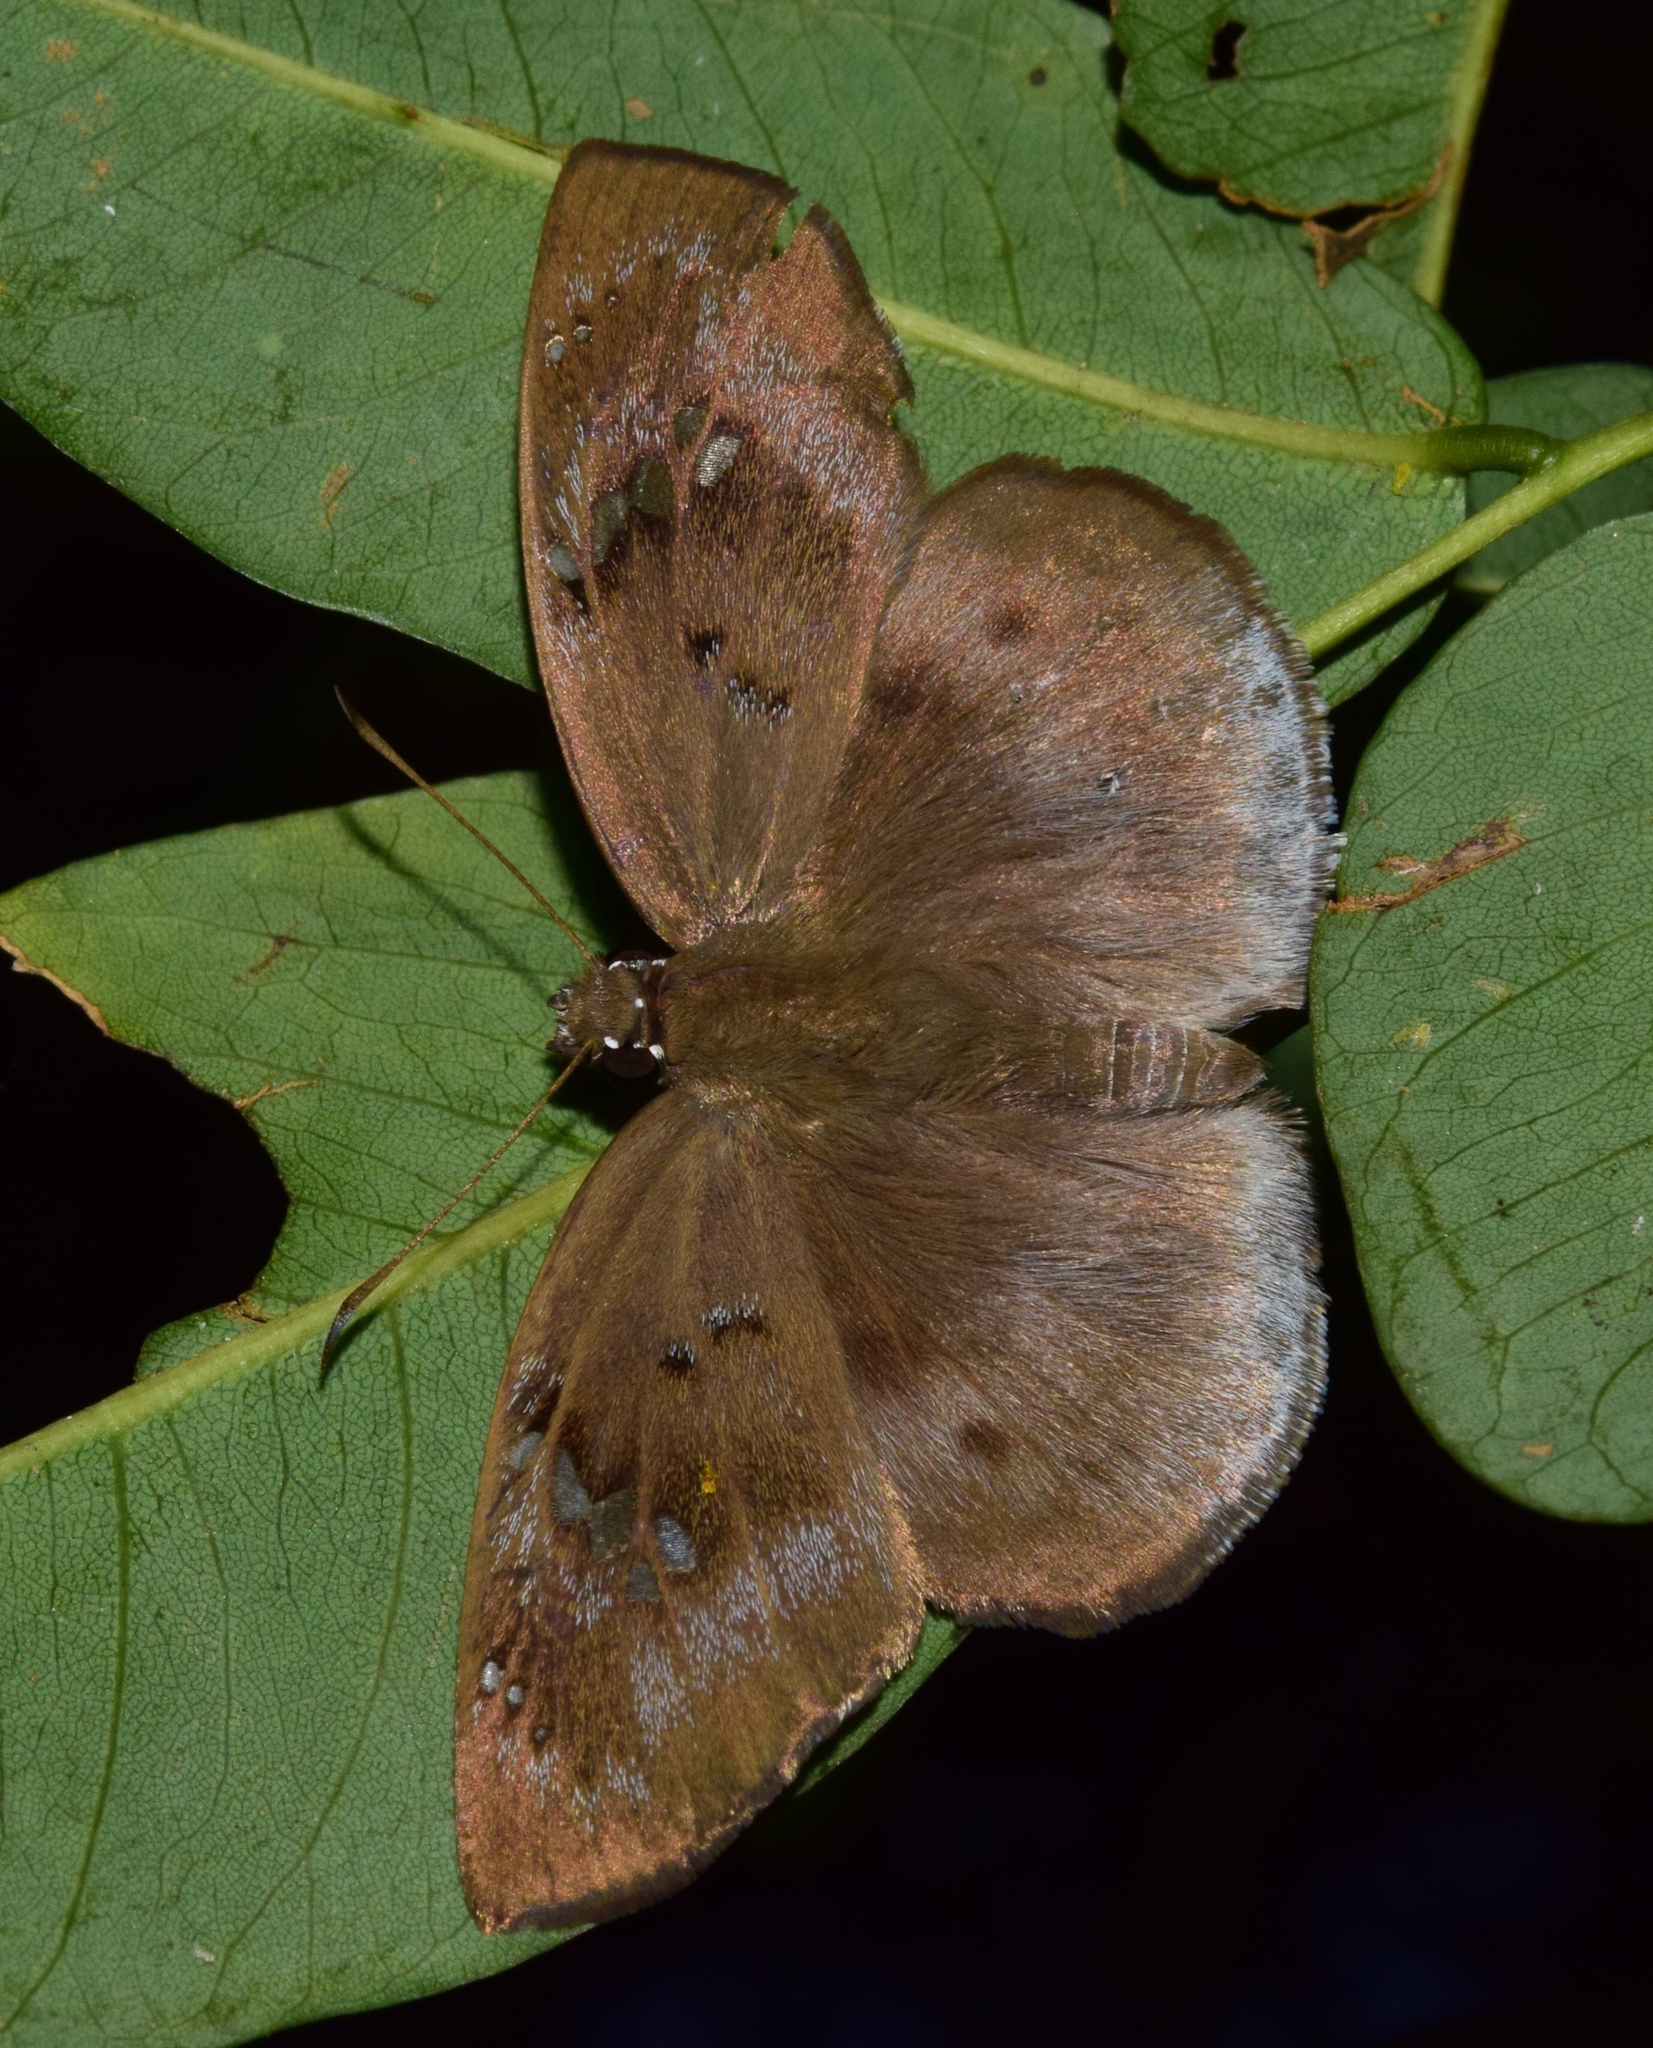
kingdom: Animalia
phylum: Arthropoda
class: Insecta
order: Lepidoptera
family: Hesperiidae
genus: Tagiades
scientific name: Tagiades flesus
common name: Clouded flat
